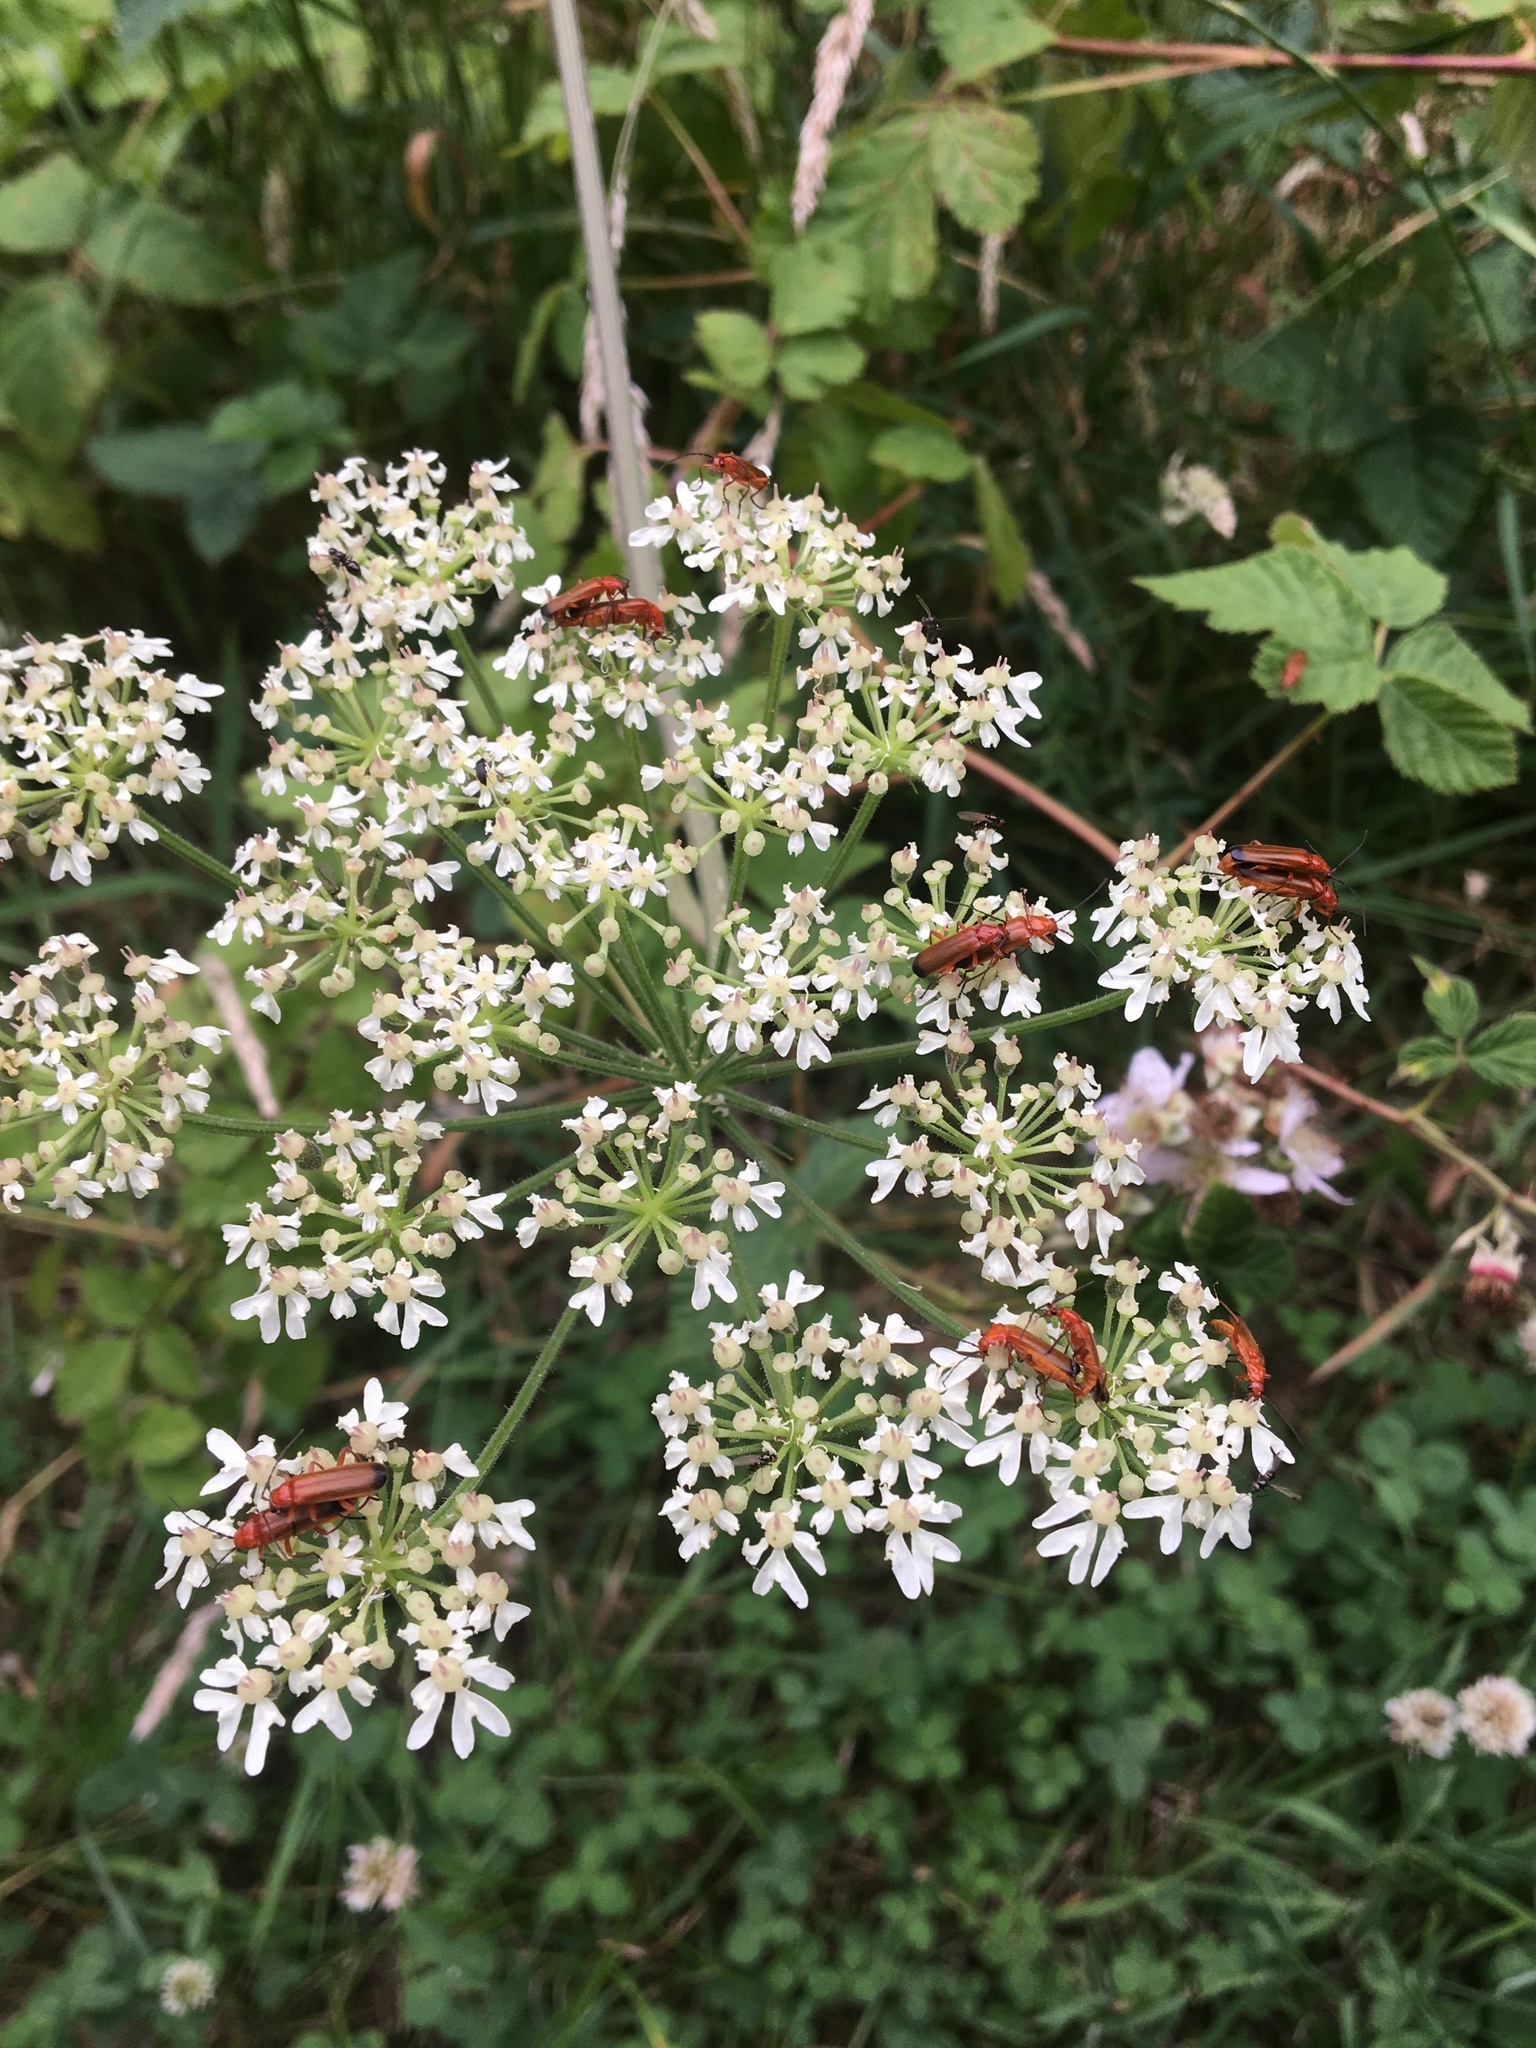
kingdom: Animalia
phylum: Arthropoda
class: Insecta
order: Coleoptera
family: Cantharidae
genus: Rhagonycha
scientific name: Rhagonycha fulva
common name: Common red soldier beetle
